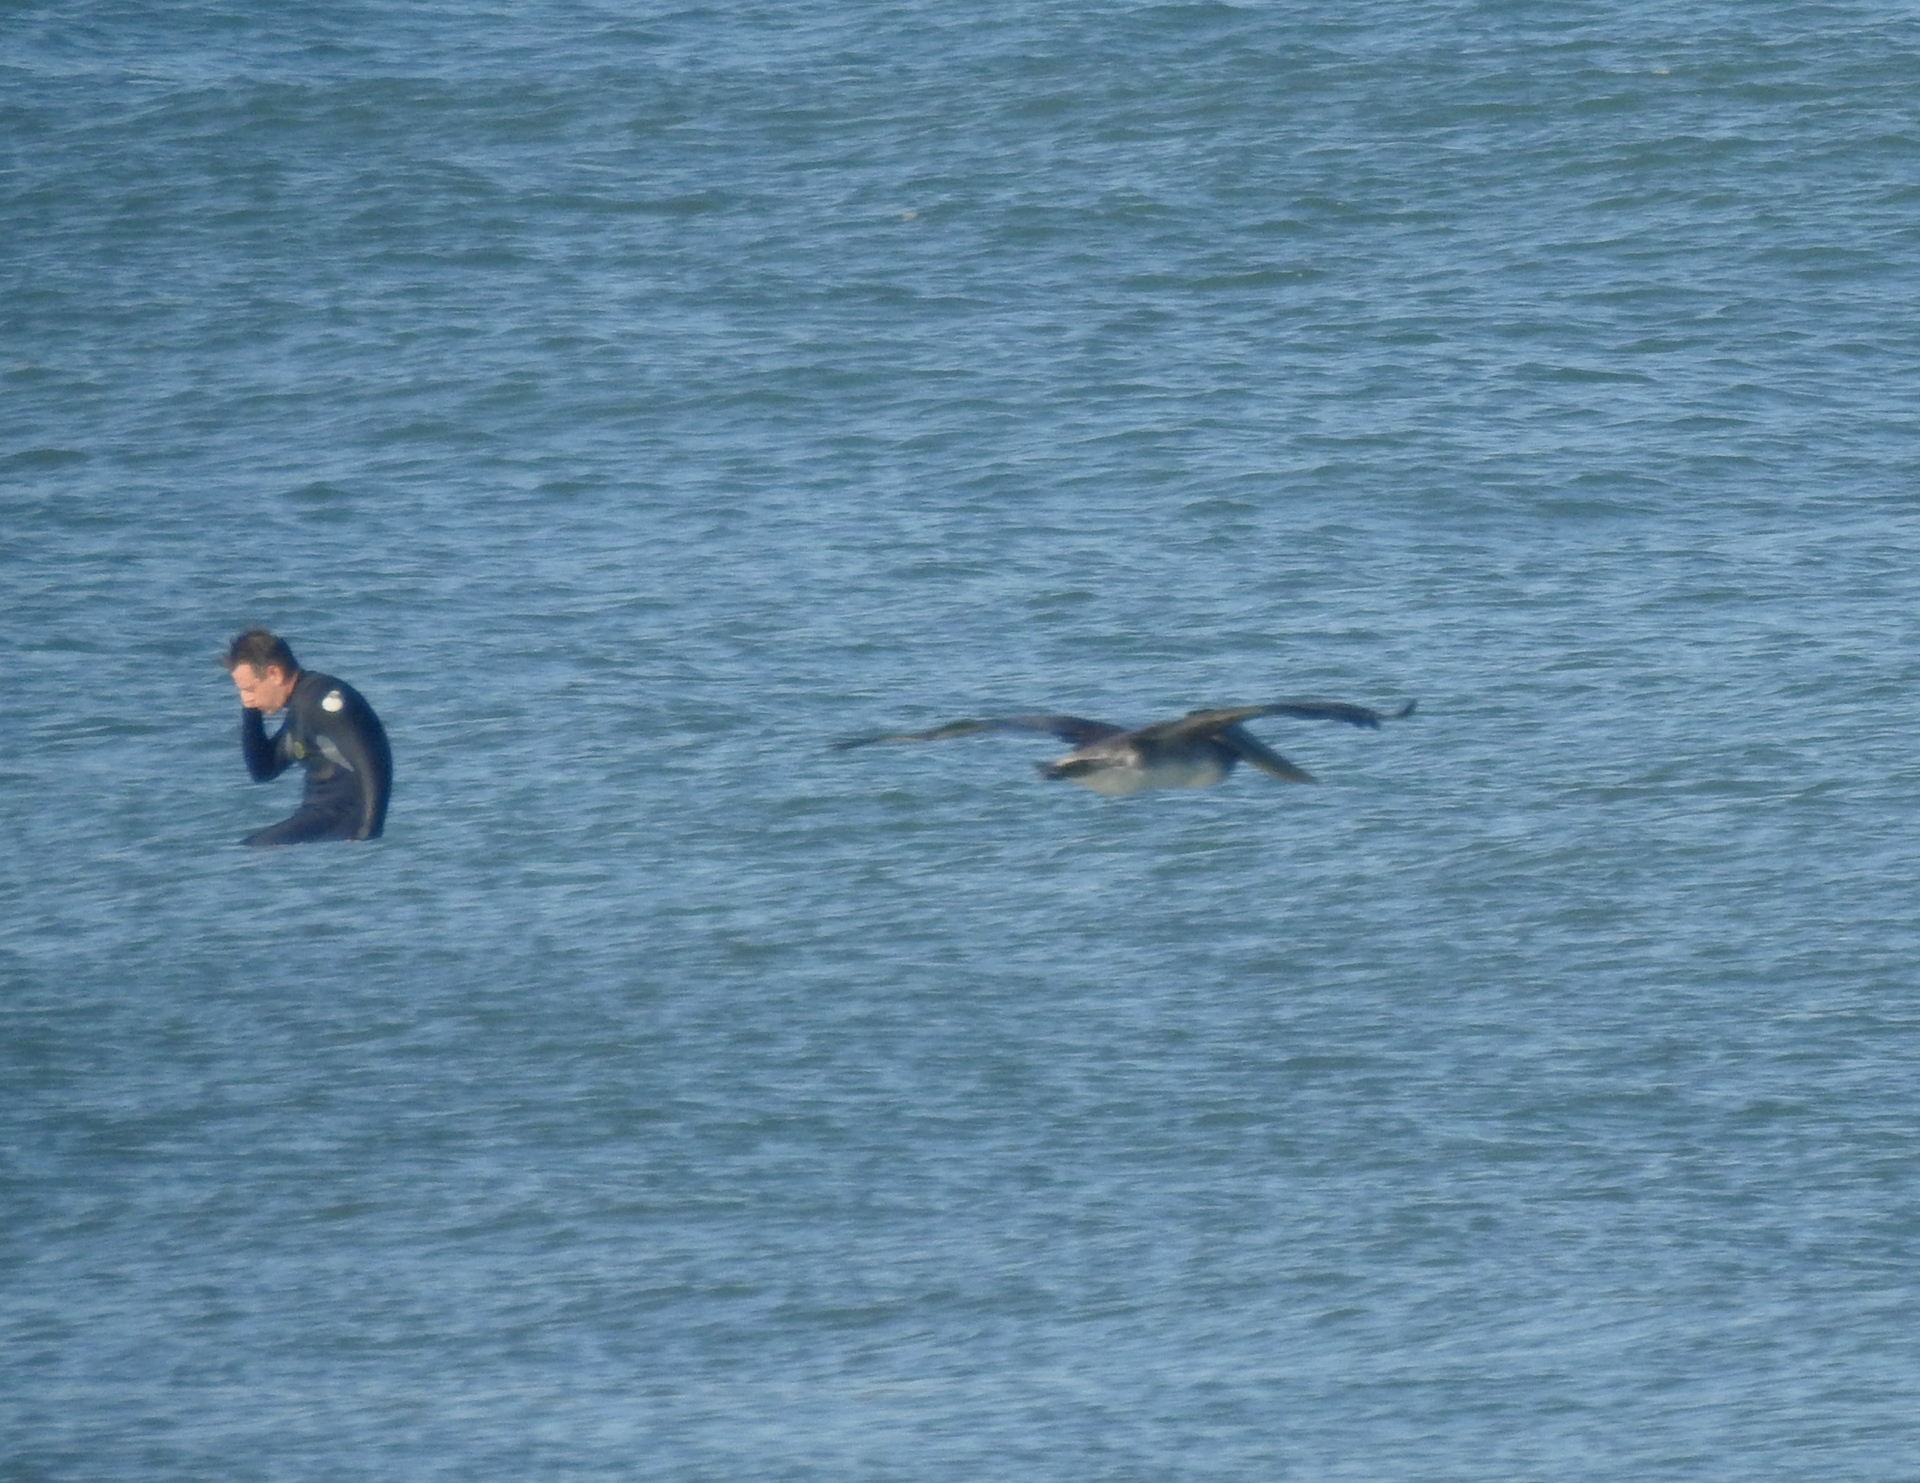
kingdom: Animalia
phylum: Chordata
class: Aves
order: Pelecaniformes
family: Pelecanidae
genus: Pelecanus
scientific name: Pelecanus occidentalis
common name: Brown pelican
